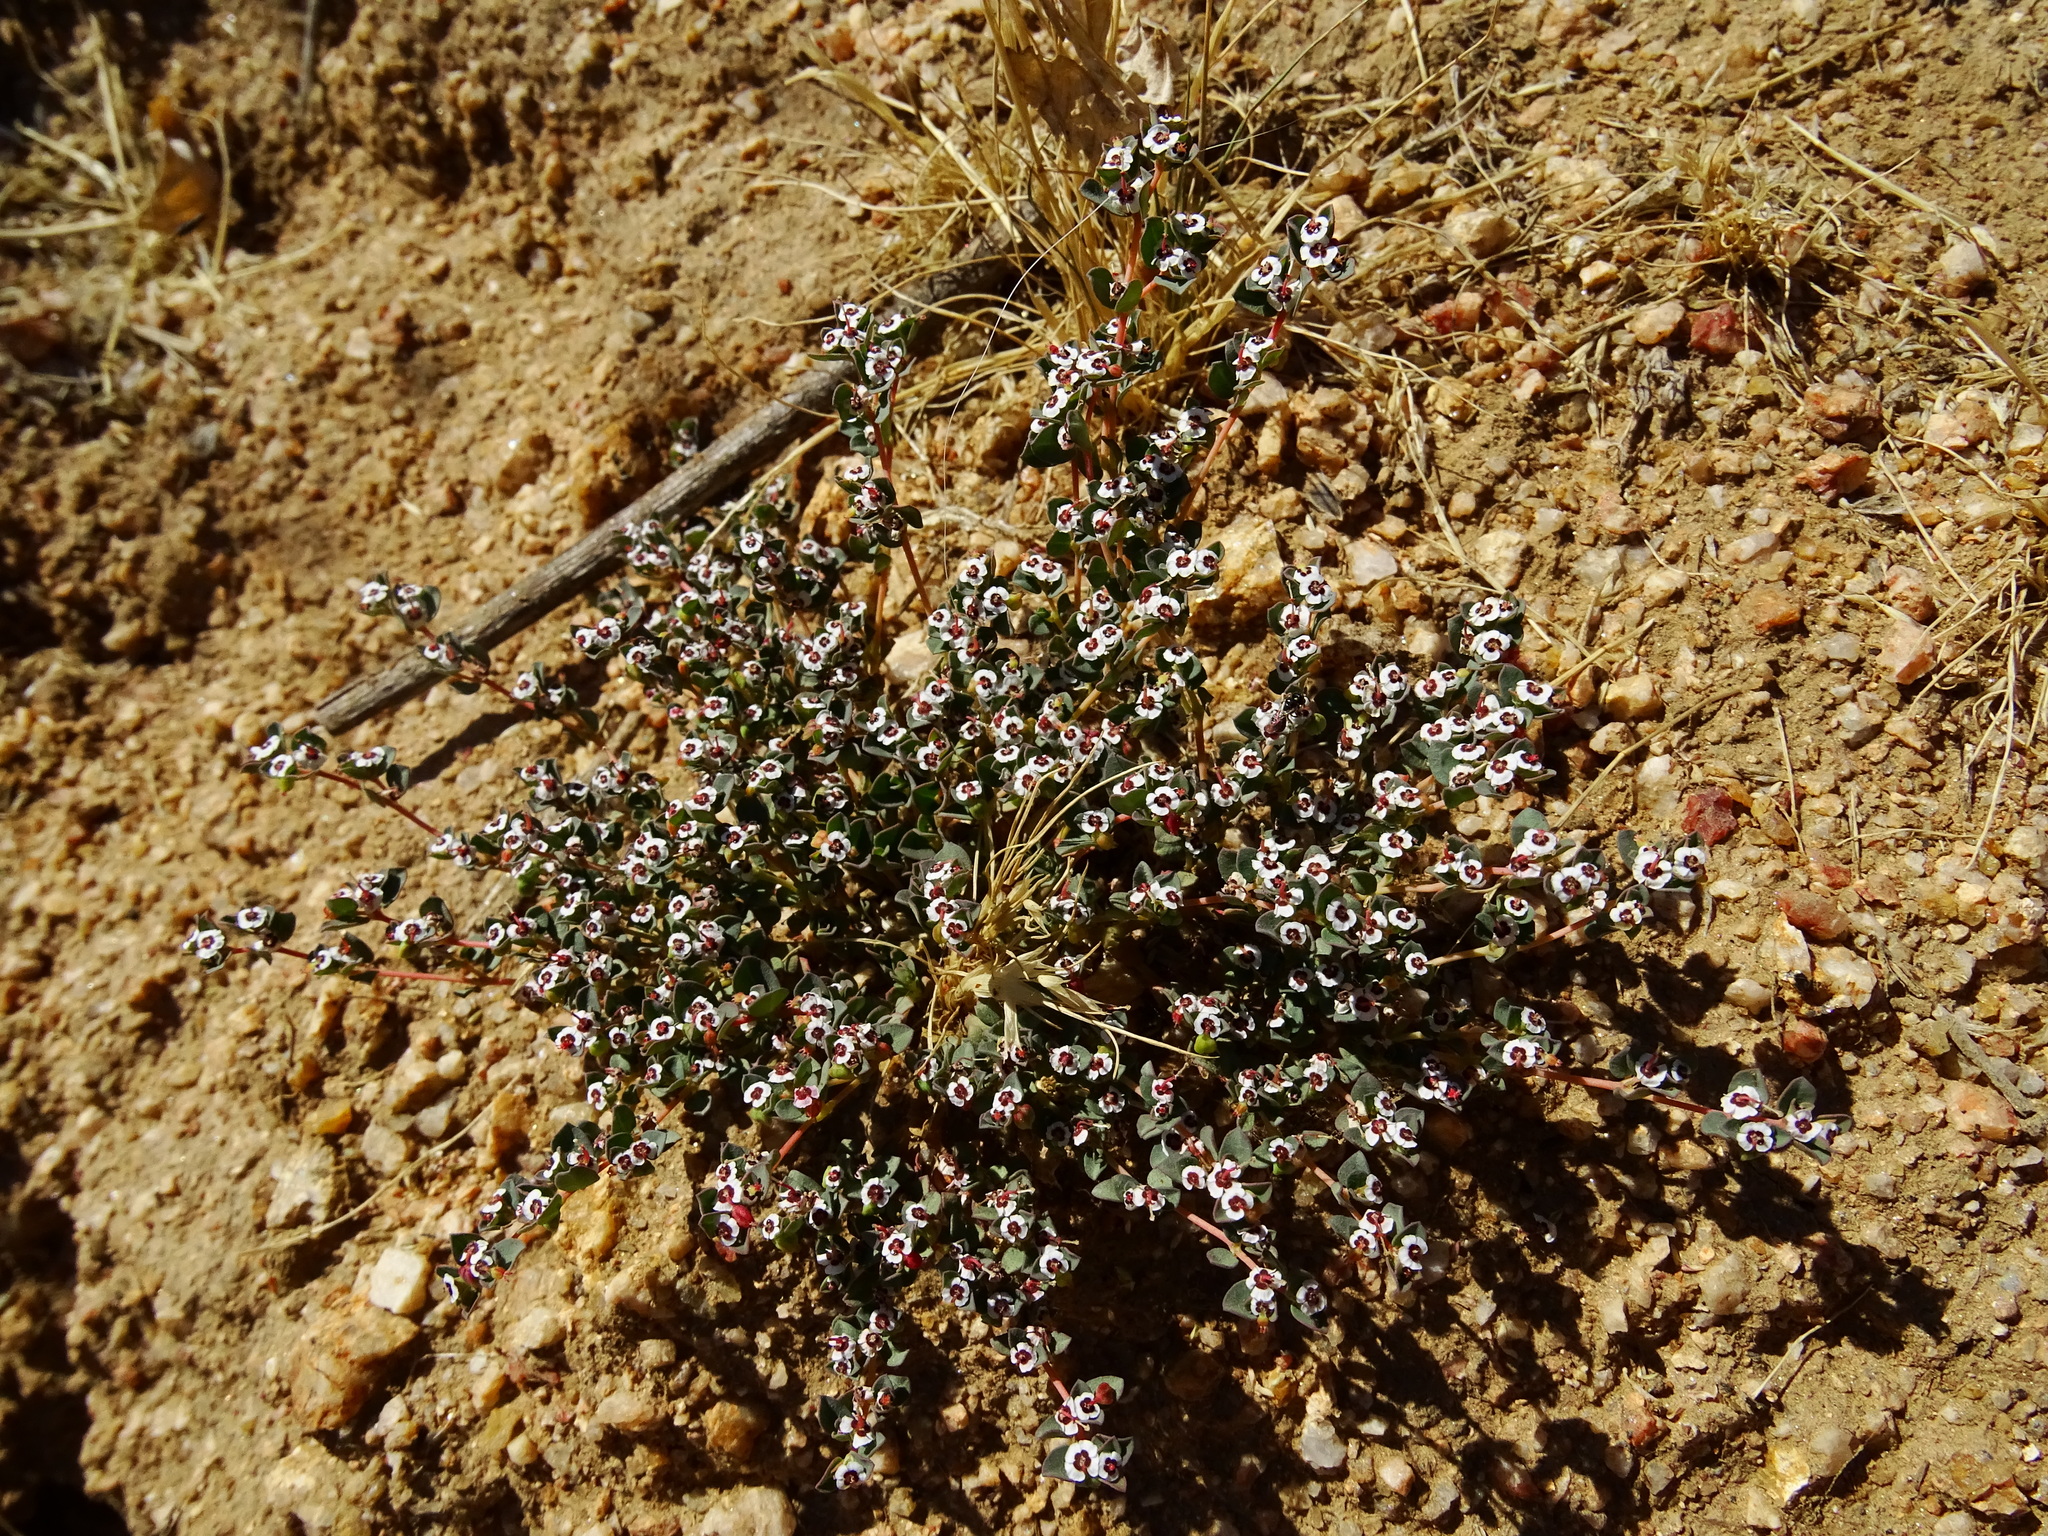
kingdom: Plantae
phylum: Tracheophyta
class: Magnoliopsida
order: Malpighiales
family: Euphorbiaceae
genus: Euphorbia
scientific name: Euphorbia polycarpa
